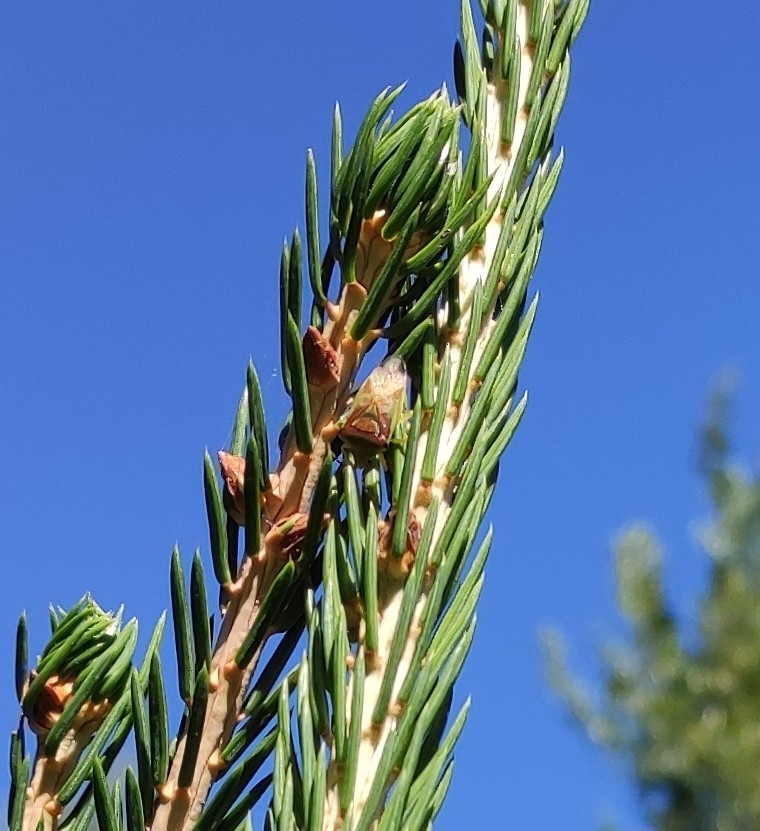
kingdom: Animalia
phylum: Arthropoda
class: Insecta
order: Hemiptera
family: Acanthosomatidae
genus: Elasmostethus
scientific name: Elasmostethus
